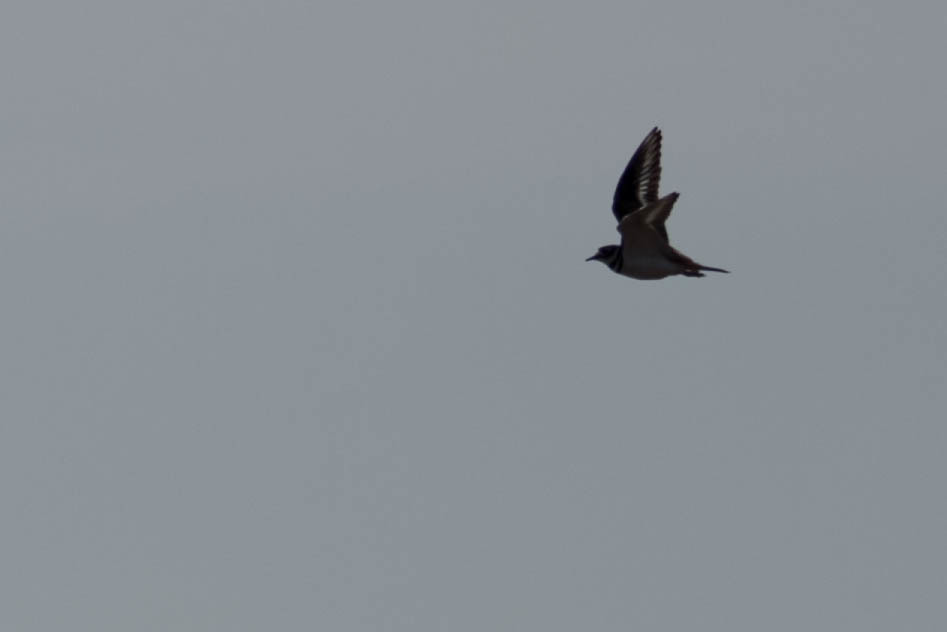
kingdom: Animalia
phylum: Chordata
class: Aves
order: Charadriiformes
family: Charadriidae
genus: Charadrius
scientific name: Charadrius vociferus
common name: Killdeer
